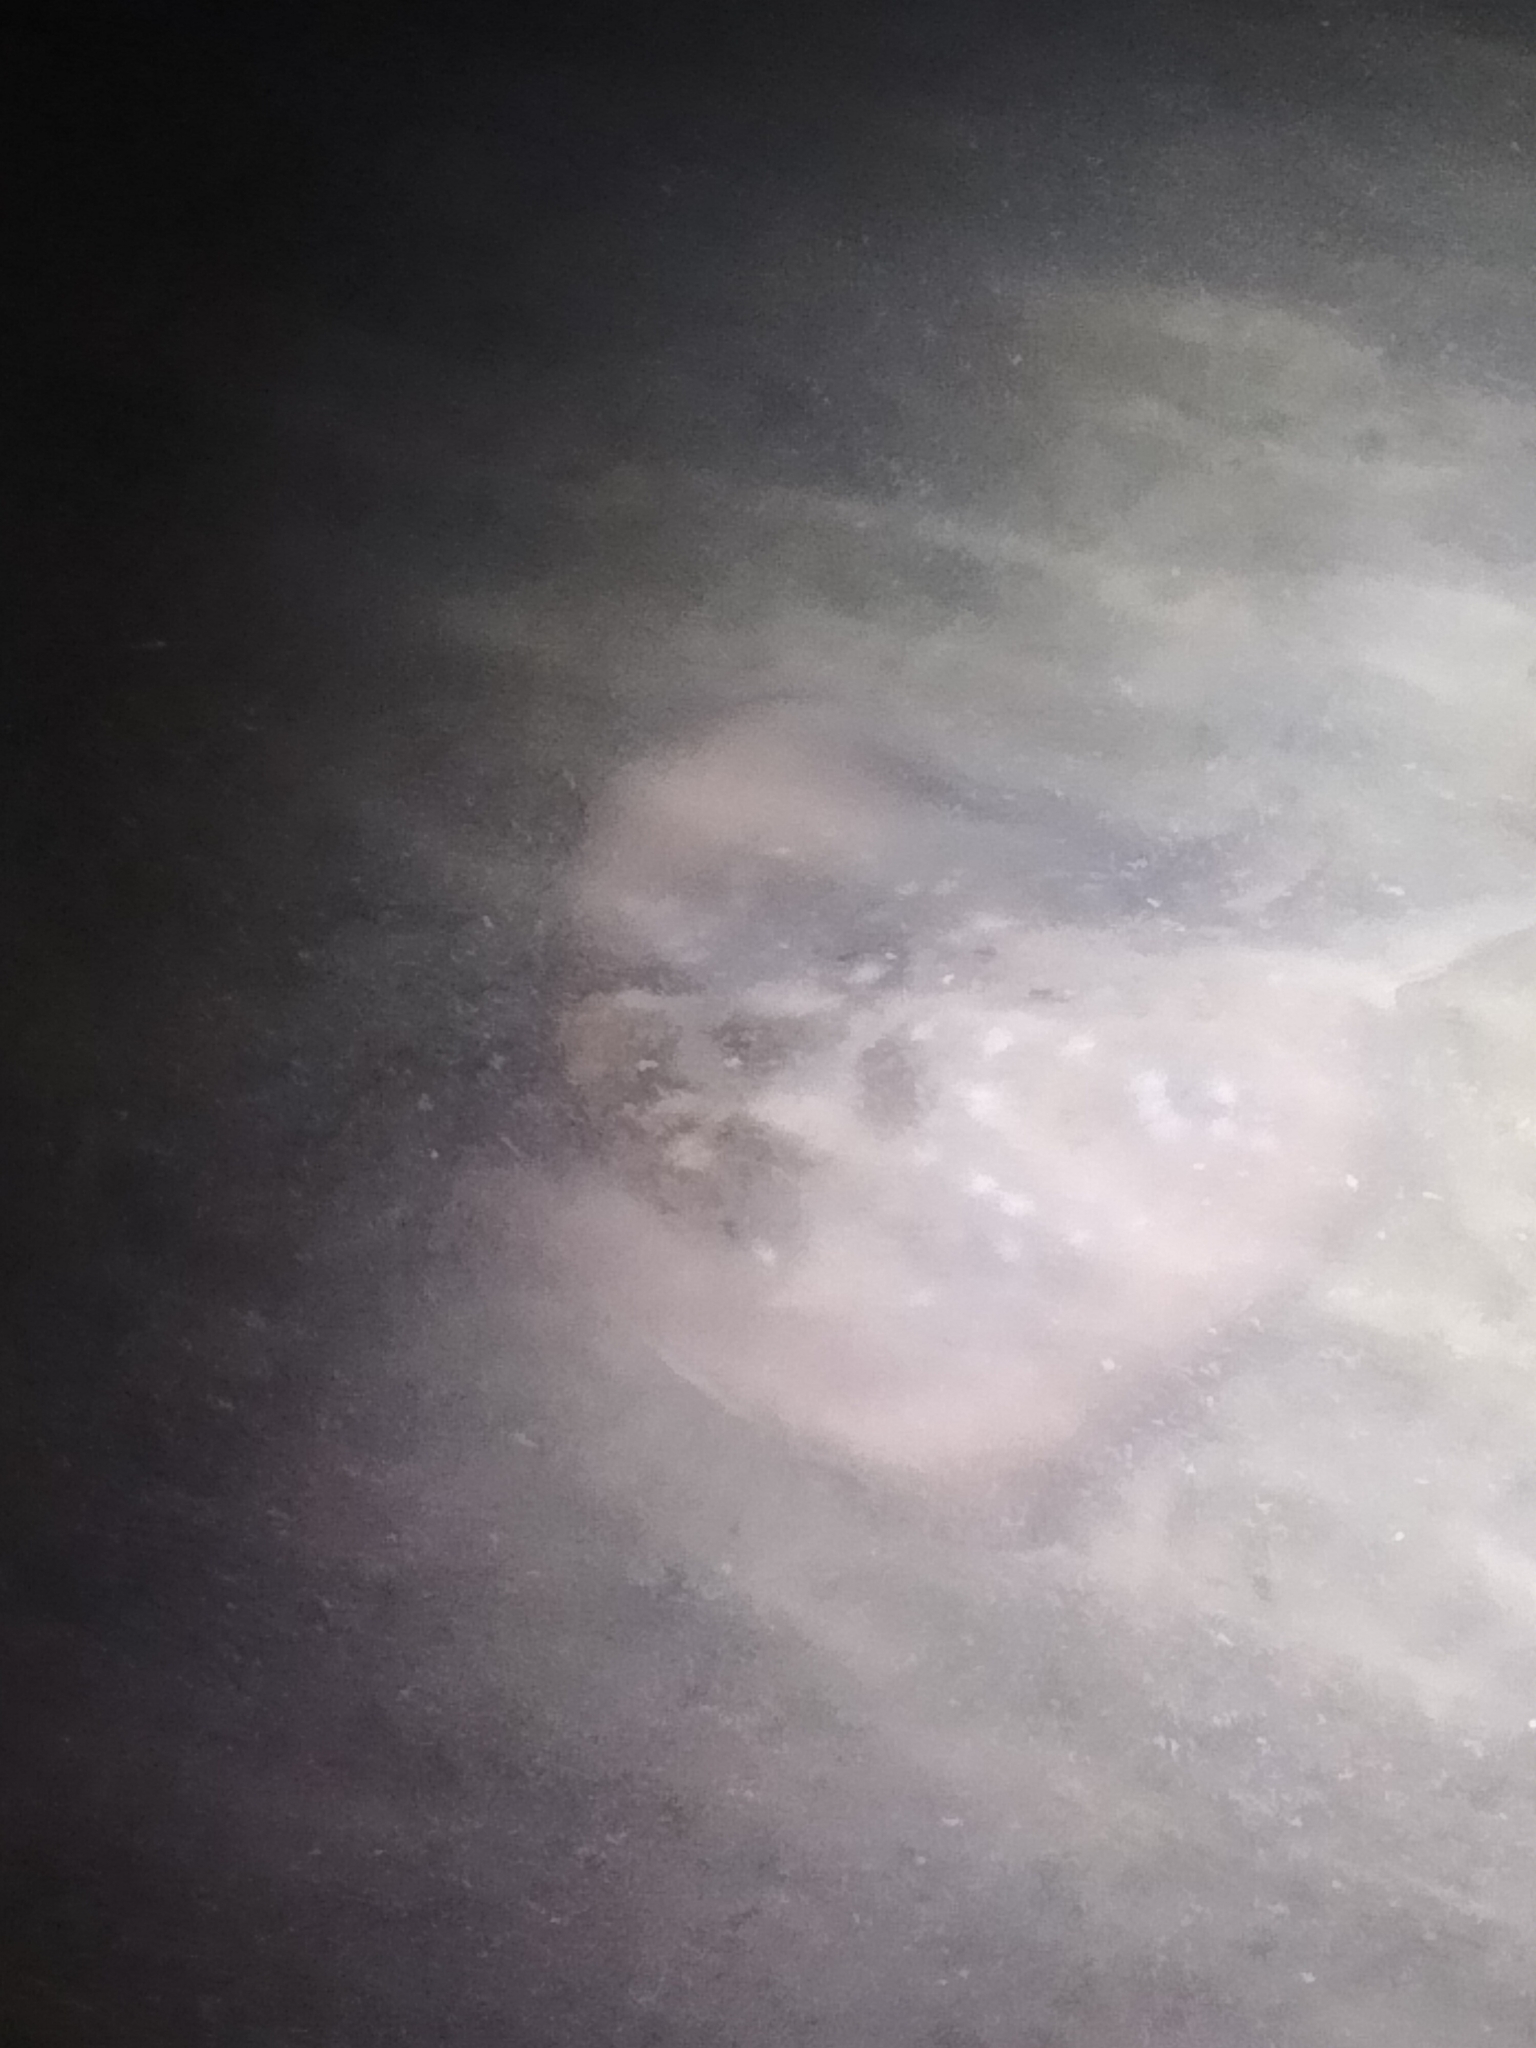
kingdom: Animalia
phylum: Chordata
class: Elasmobranchii
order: Myliobatiformes
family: Dasyatidae
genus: Neotrygon
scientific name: Neotrygon kuhlii
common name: Bluespotted stingray
